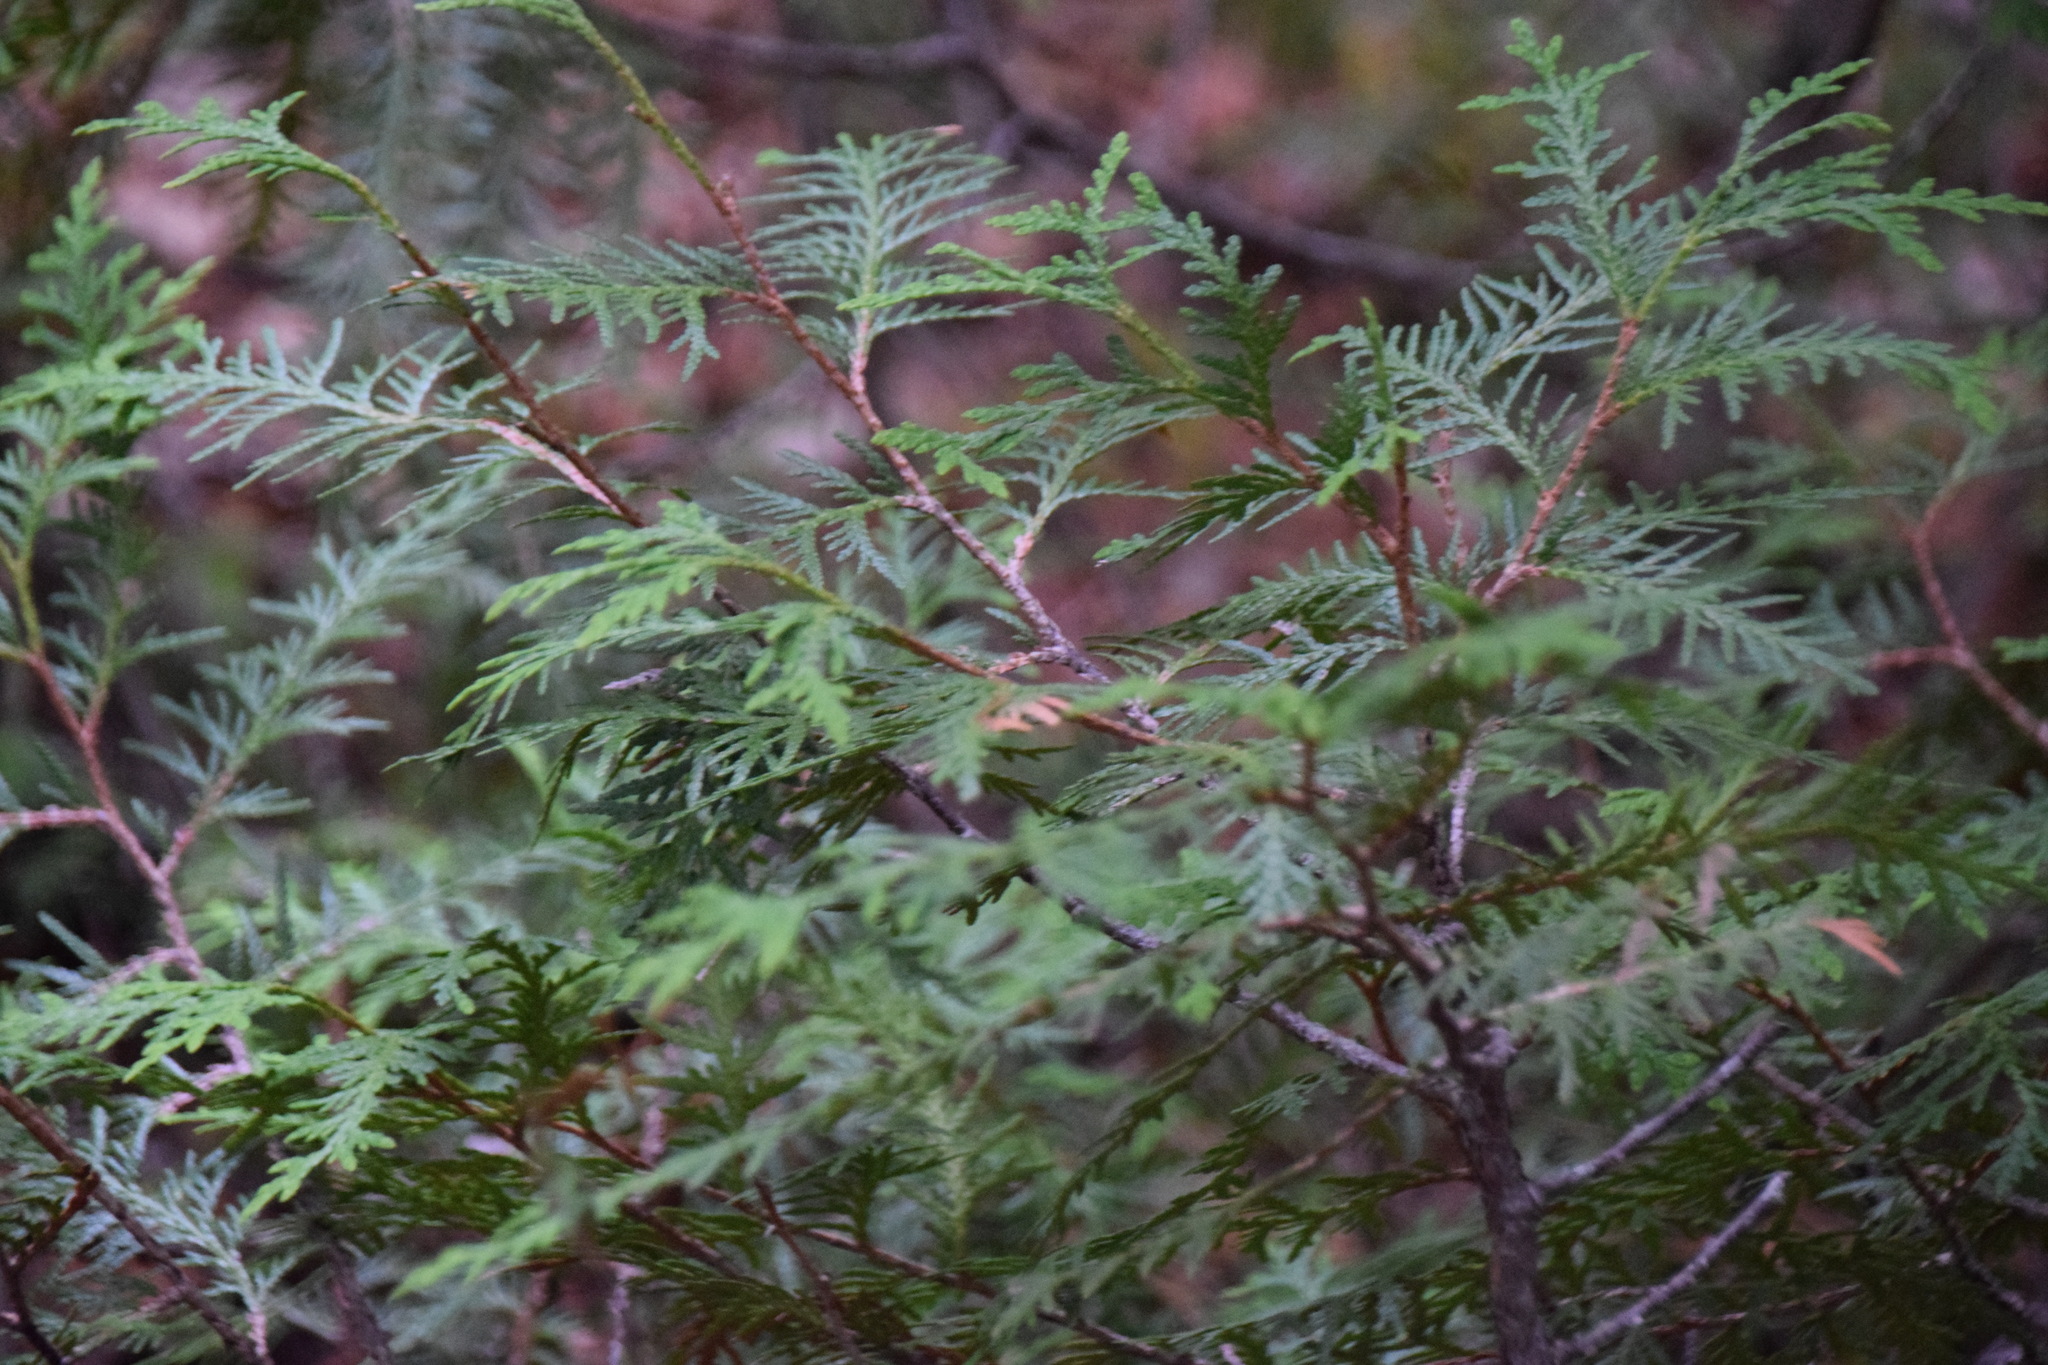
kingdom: Plantae
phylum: Tracheophyta
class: Pinopsida
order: Pinales
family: Cupressaceae
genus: Thuja
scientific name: Thuja occidentalis
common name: Northern white-cedar
